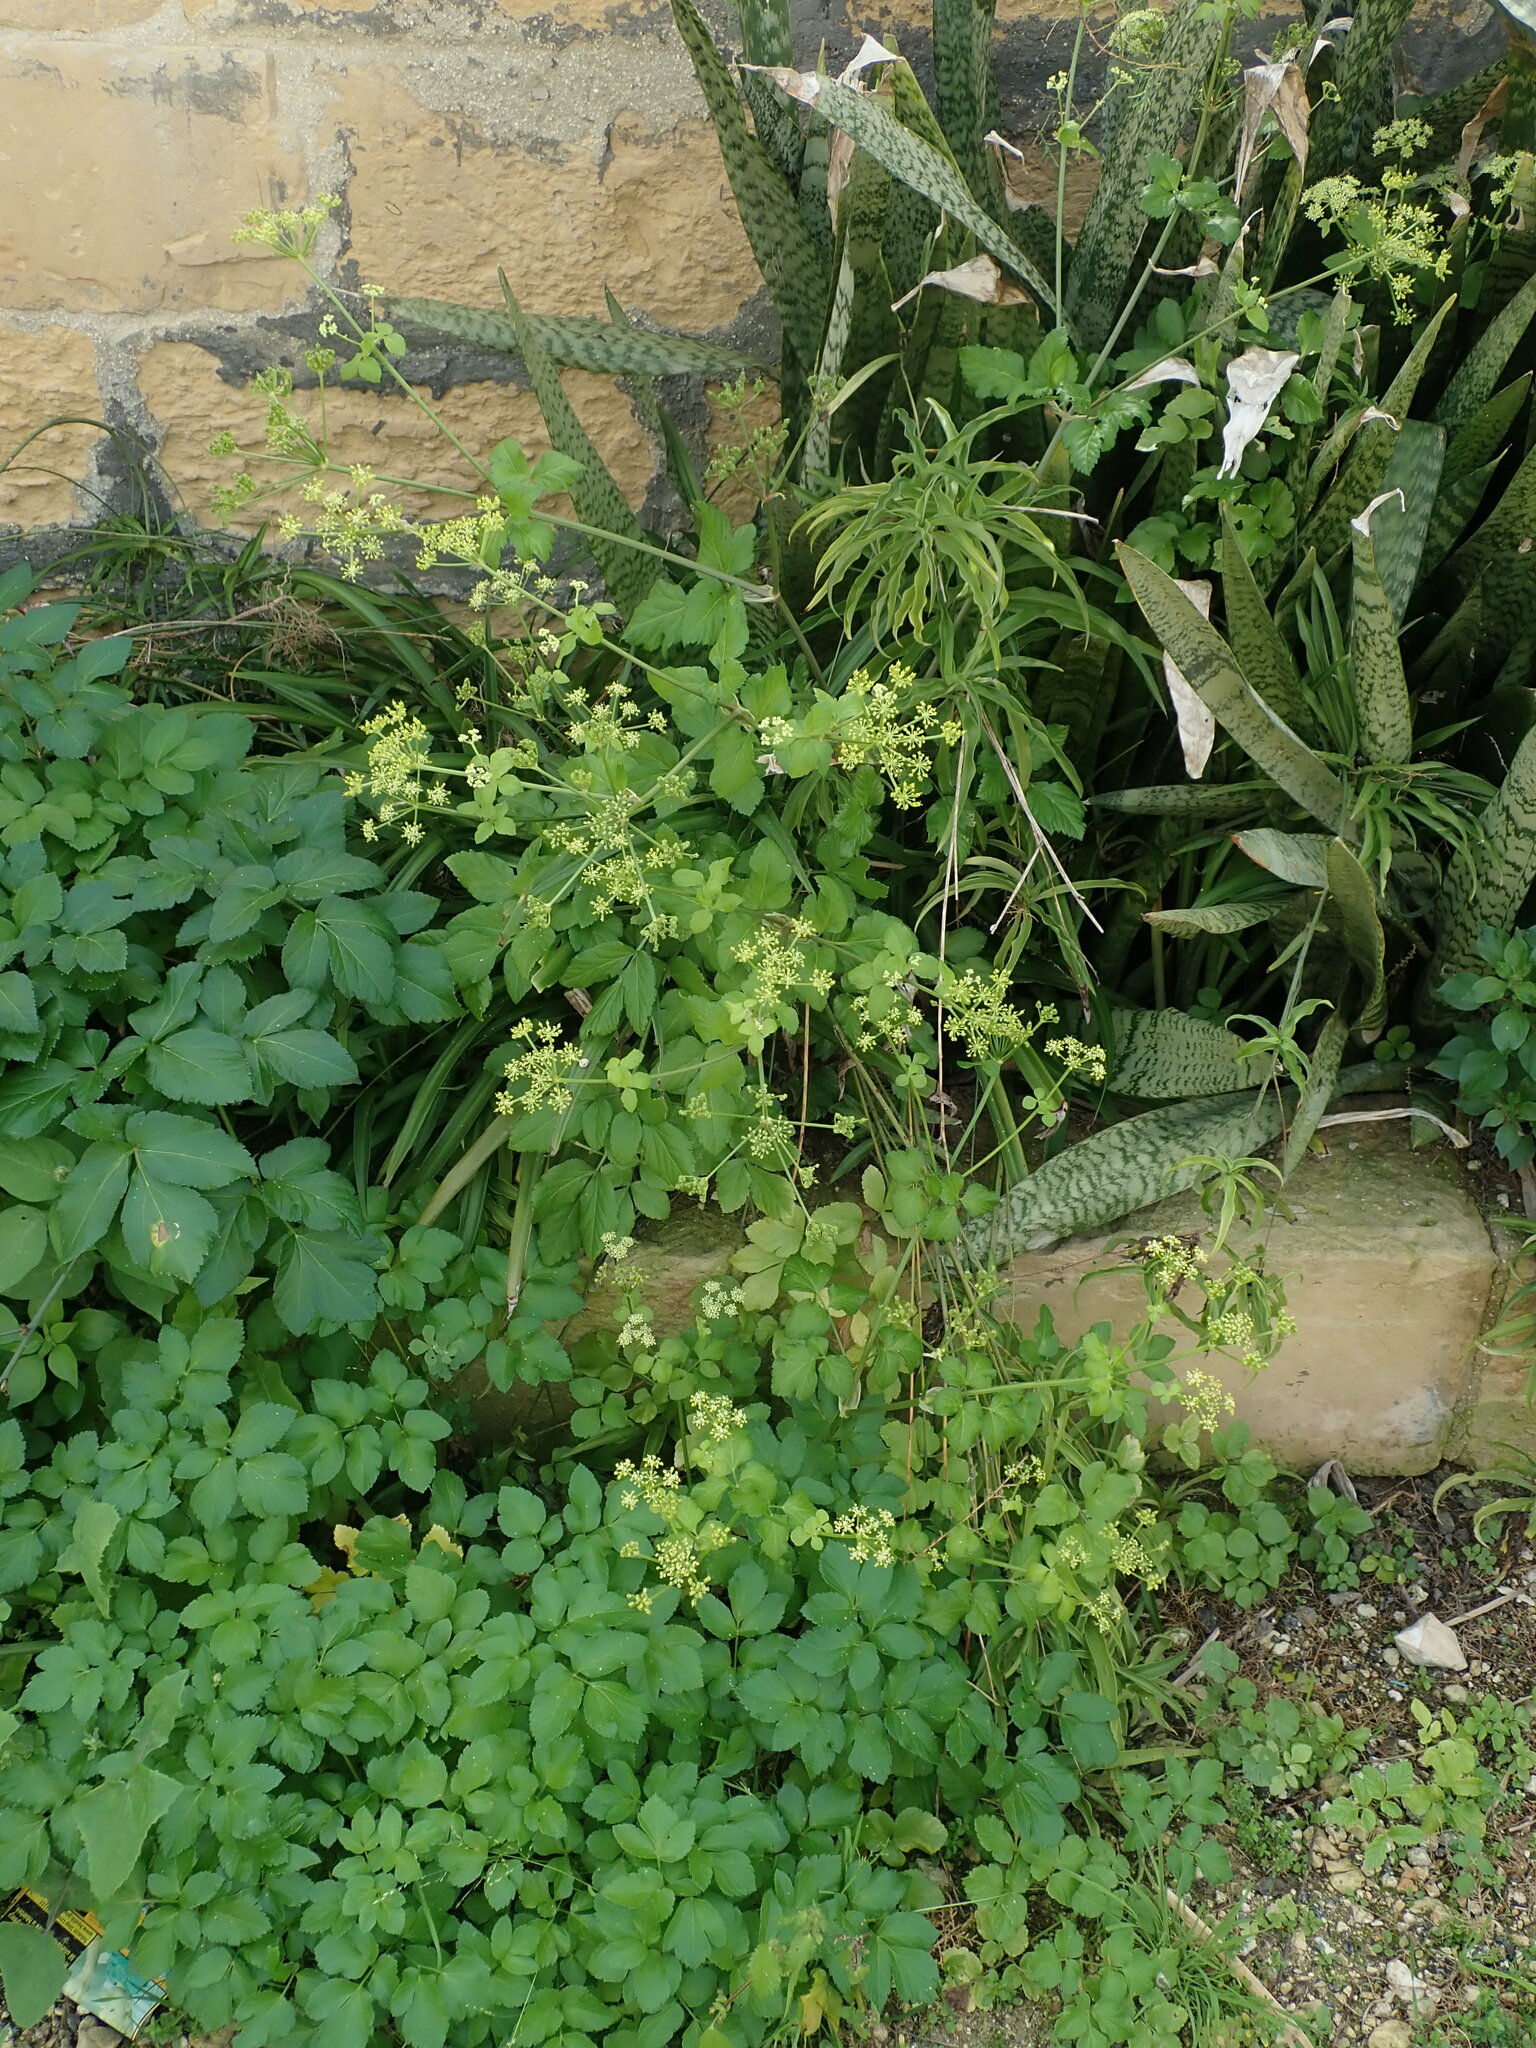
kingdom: Plantae
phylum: Tracheophyta
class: Magnoliopsida
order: Apiales
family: Apiaceae
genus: Smyrnium
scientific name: Smyrnium olusatrum
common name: Alexanders
